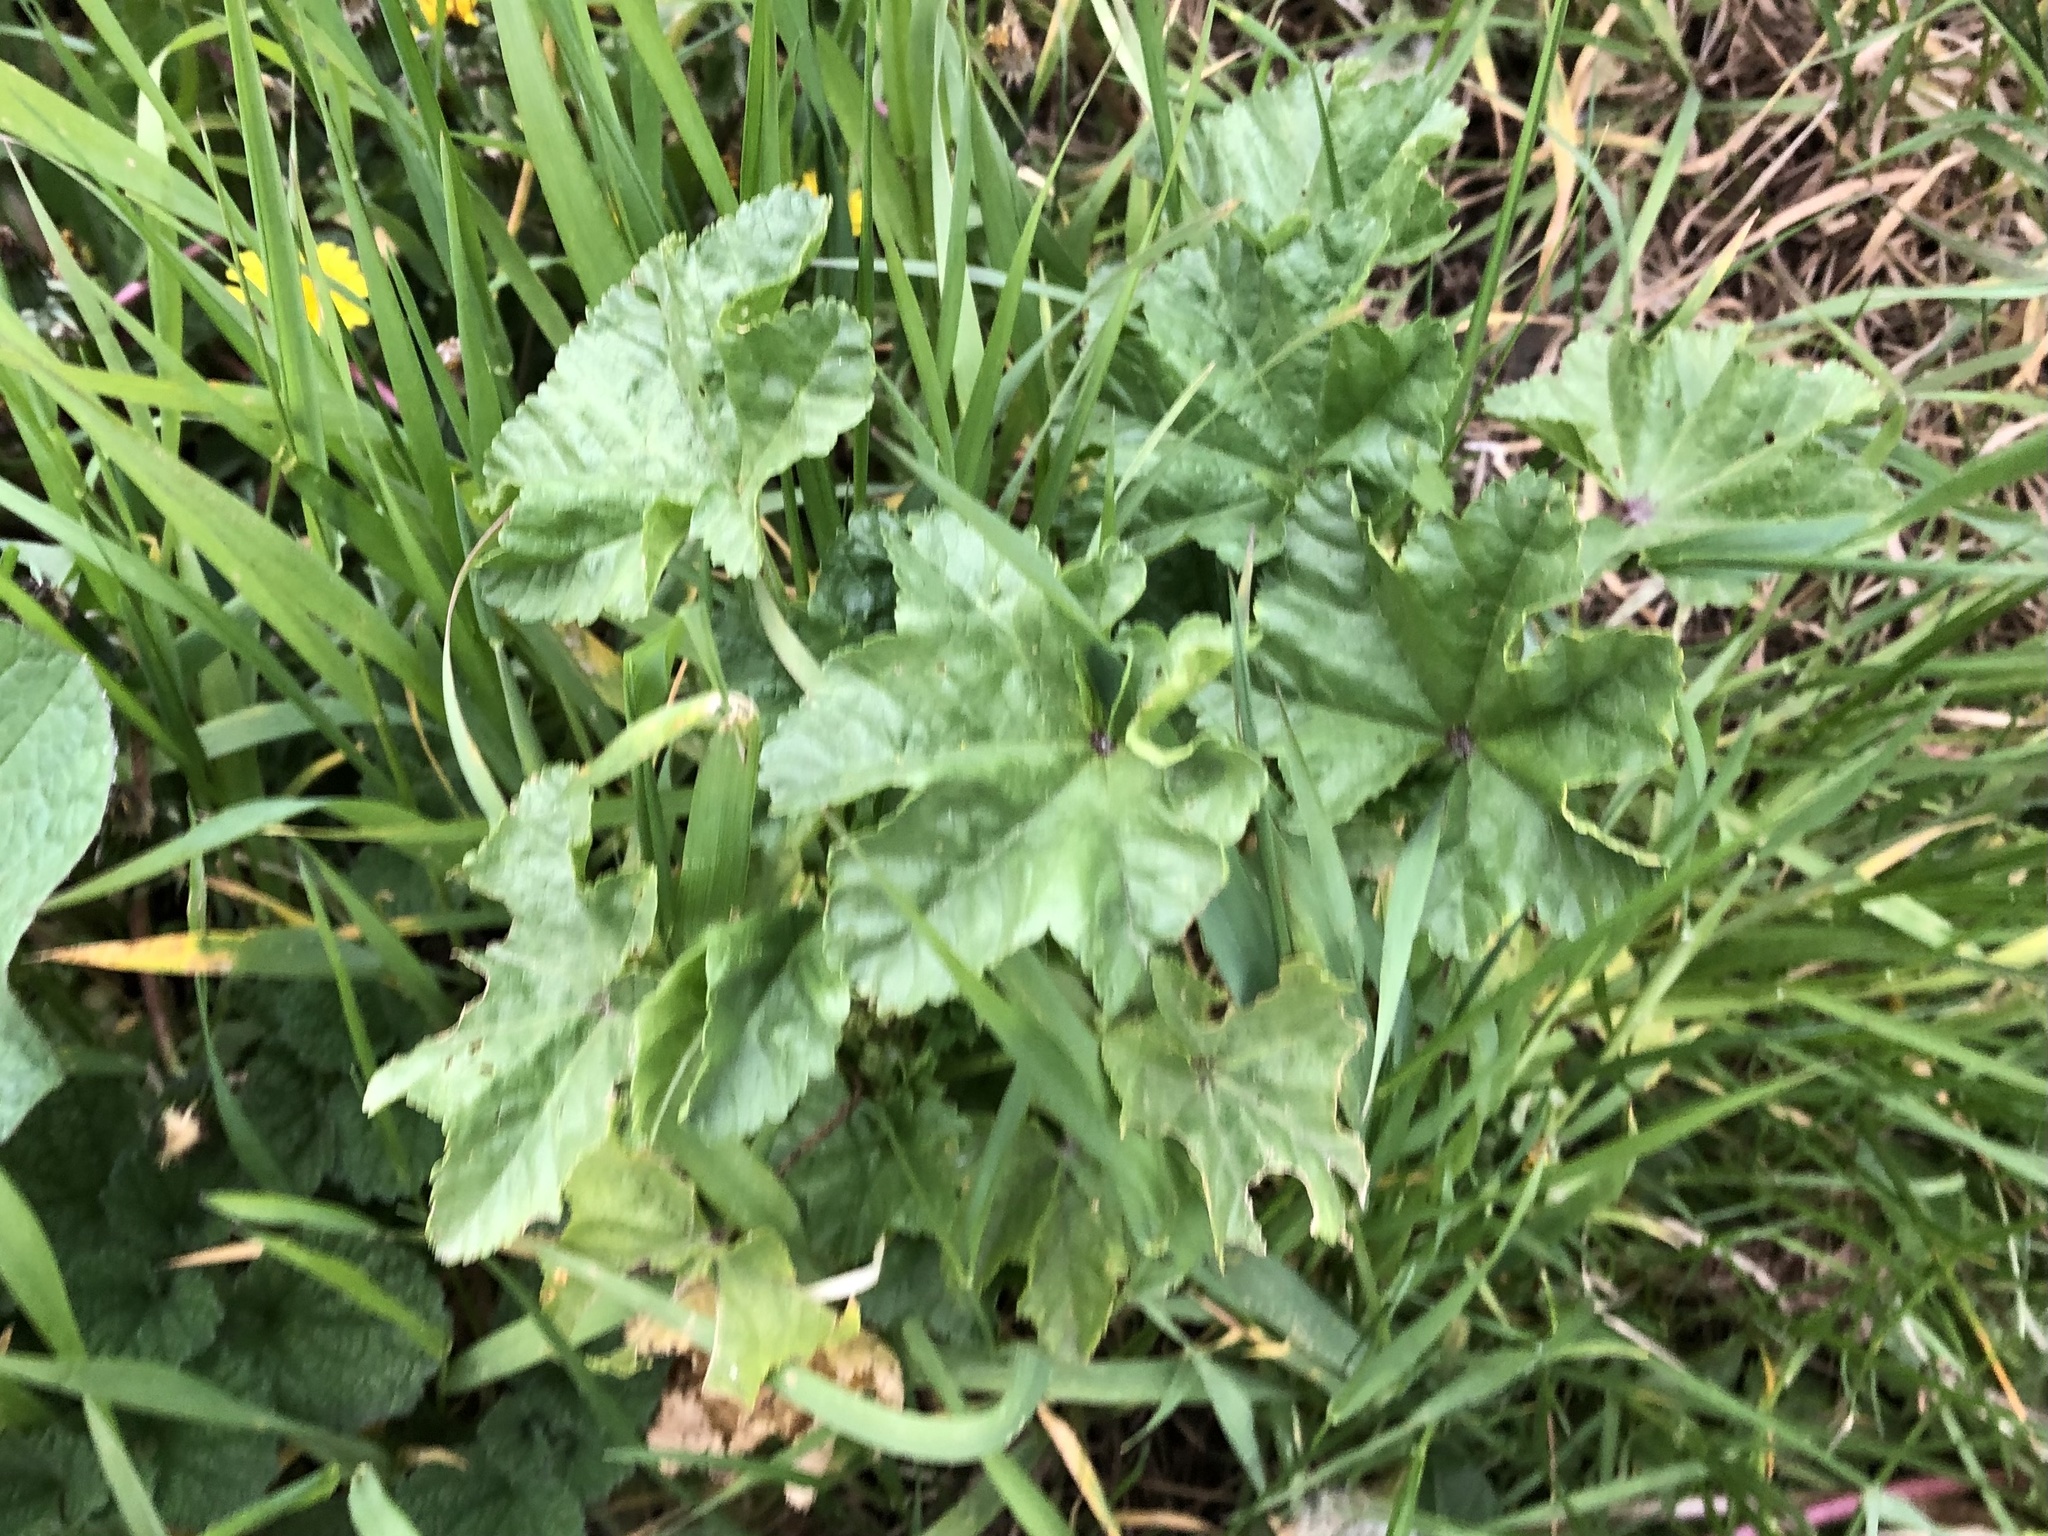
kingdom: Plantae
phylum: Tracheophyta
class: Magnoliopsida
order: Malvales
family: Malvaceae
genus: Malva
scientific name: Malva sylvestris
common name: Common mallow
